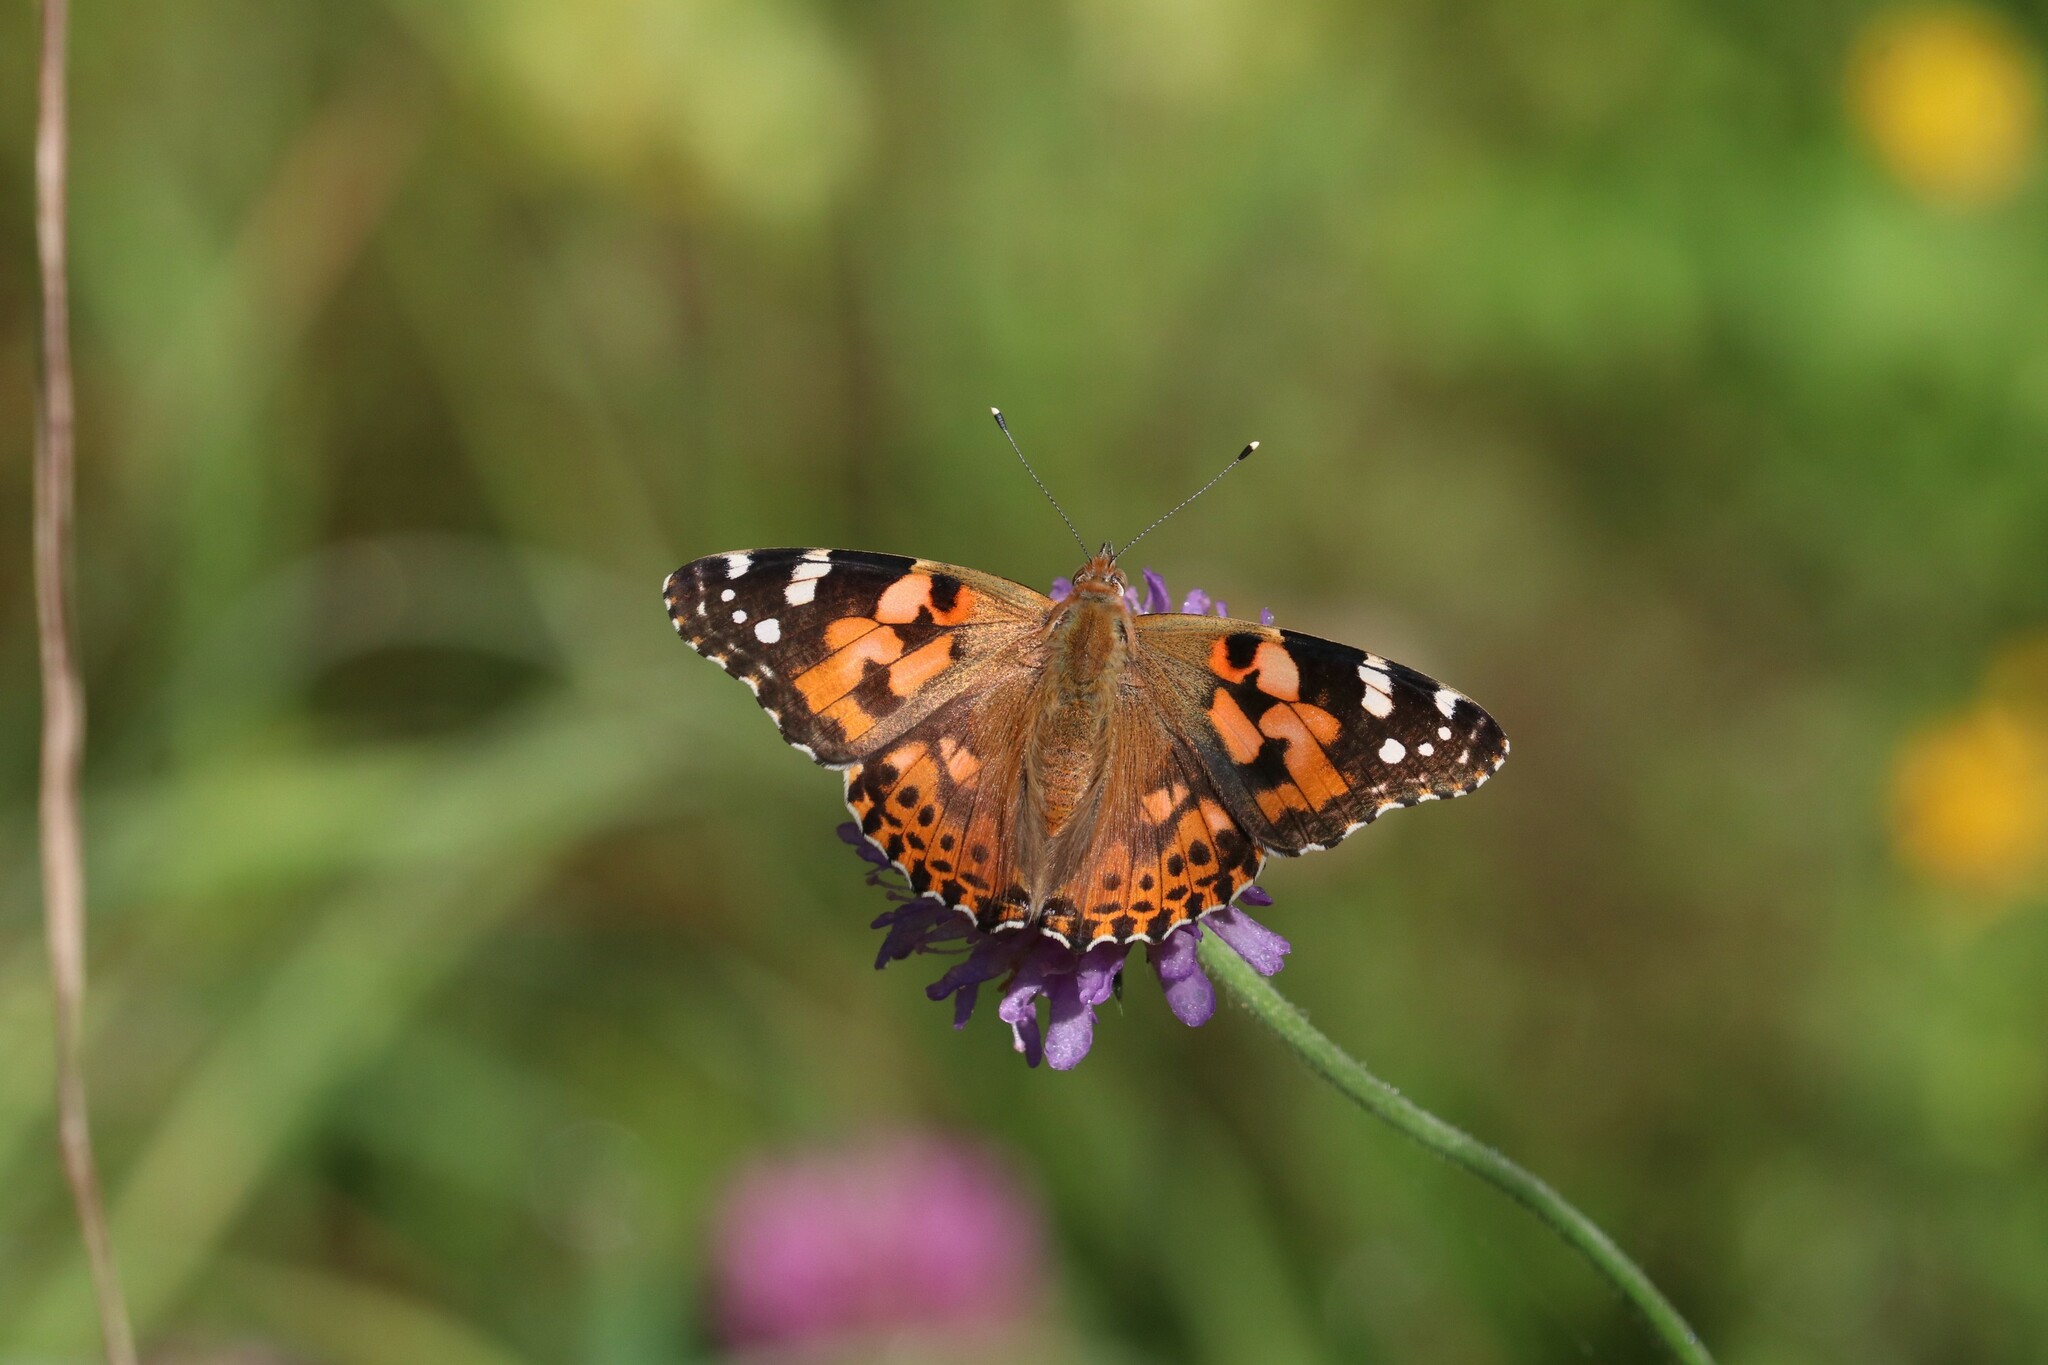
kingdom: Animalia
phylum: Arthropoda
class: Insecta
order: Lepidoptera
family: Nymphalidae
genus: Vanessa
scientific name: Vanessa cardui
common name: Painted lady
